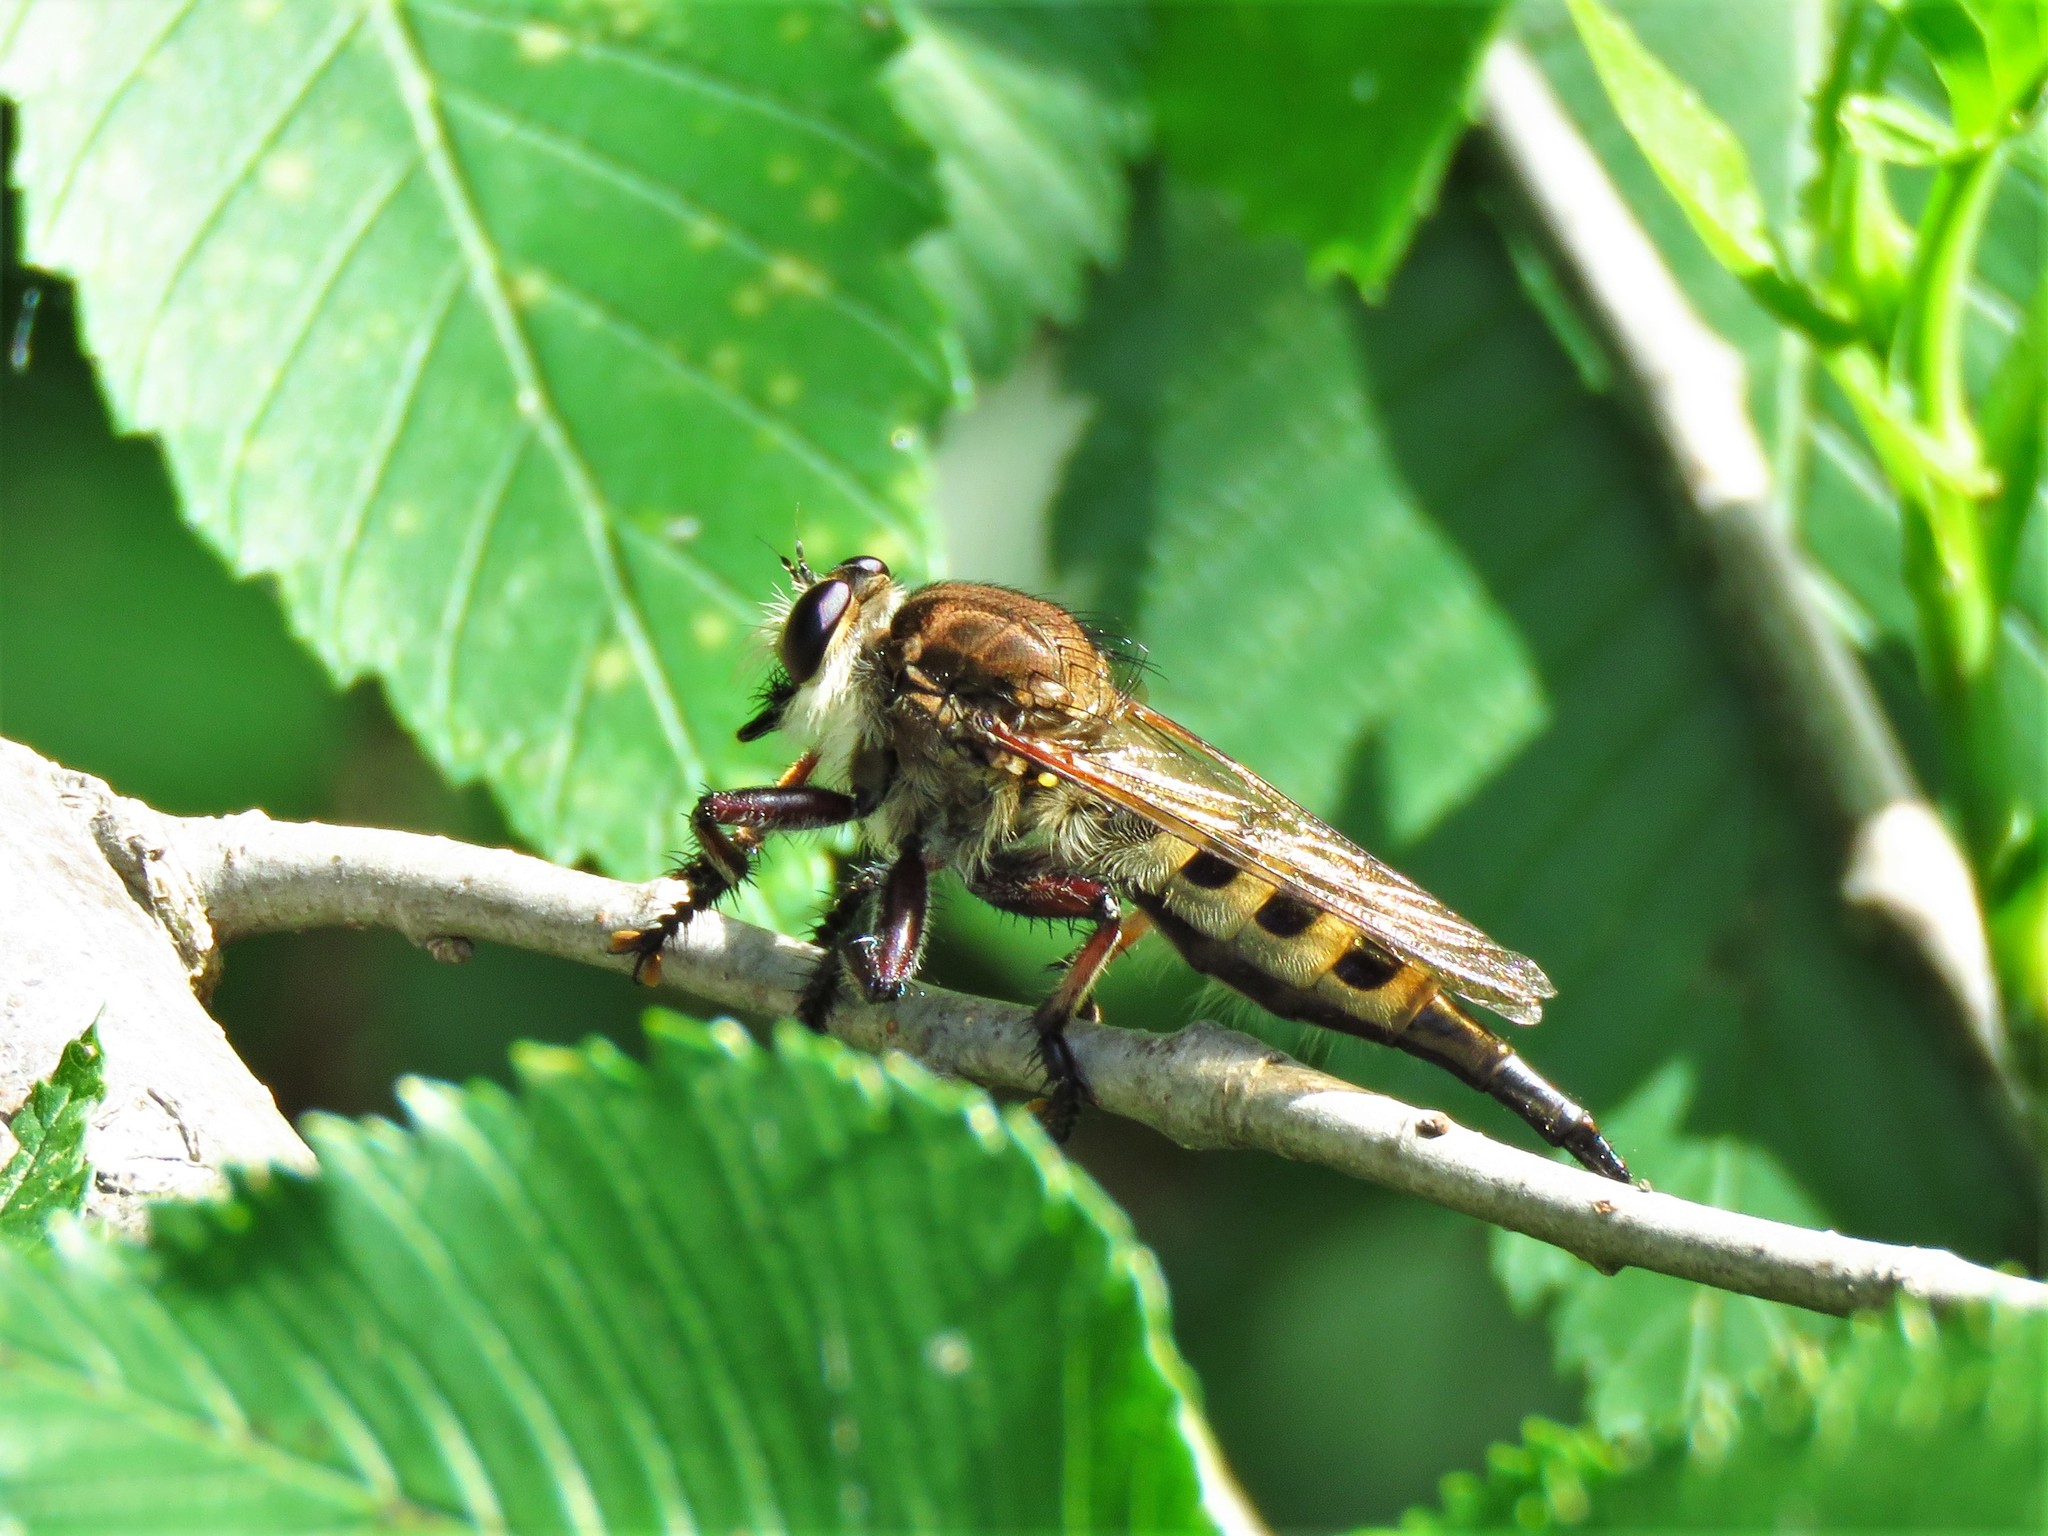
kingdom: Animalia
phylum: Arthropoda
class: Insecta
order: Diptera
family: Asilidae
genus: Promachus
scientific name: Promachus hinei
